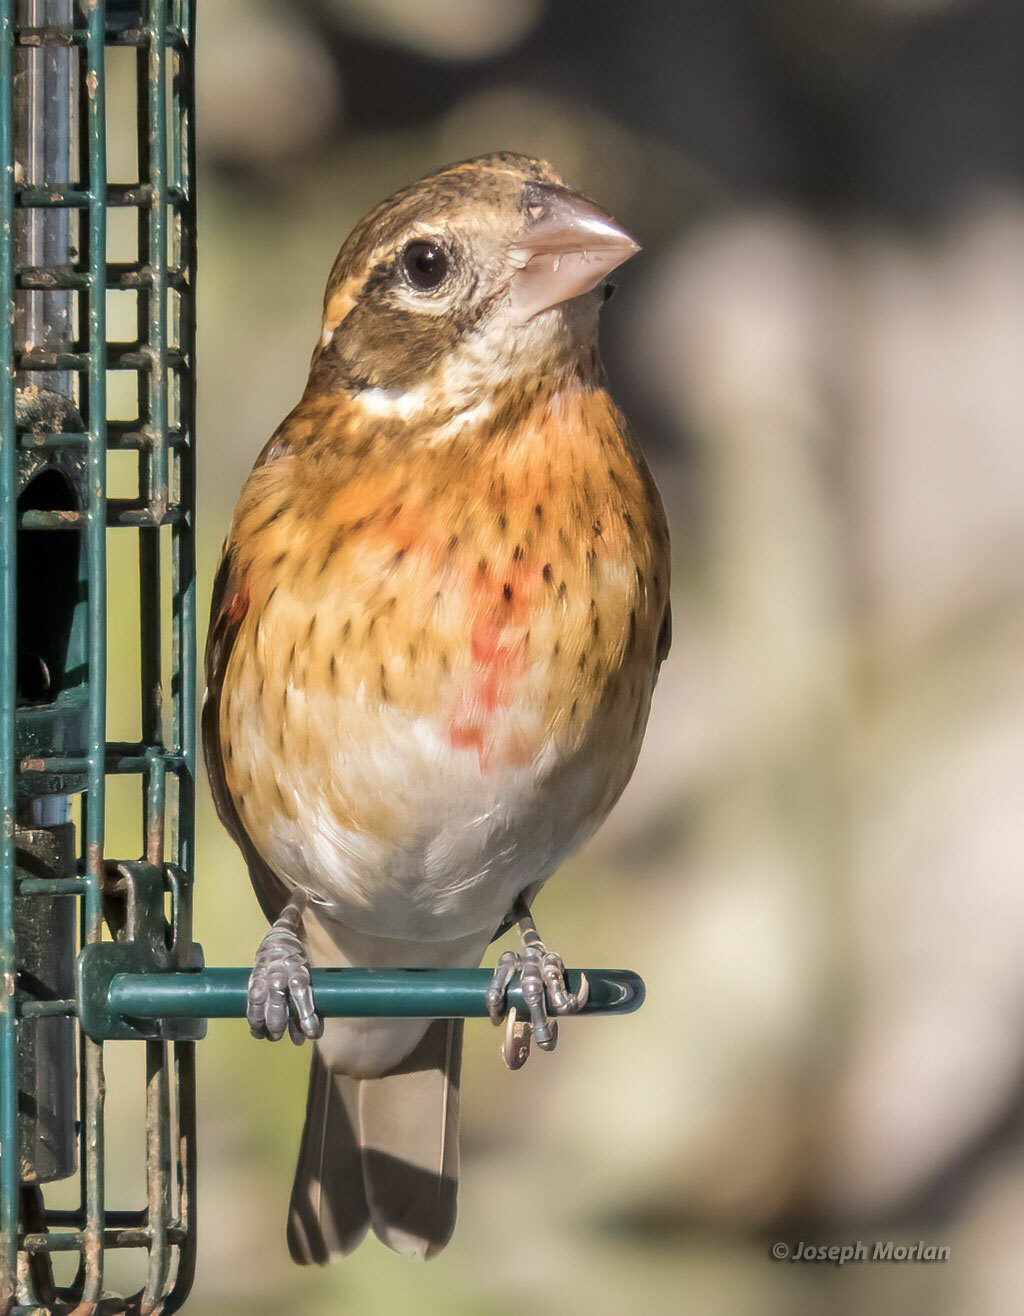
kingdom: Animalia
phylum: Chordata
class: Aves
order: Passeriformes
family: Cardinalidae
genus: Pheucticus
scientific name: Pheucticus ludovicianus
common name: Rose-breasted grosbeak
